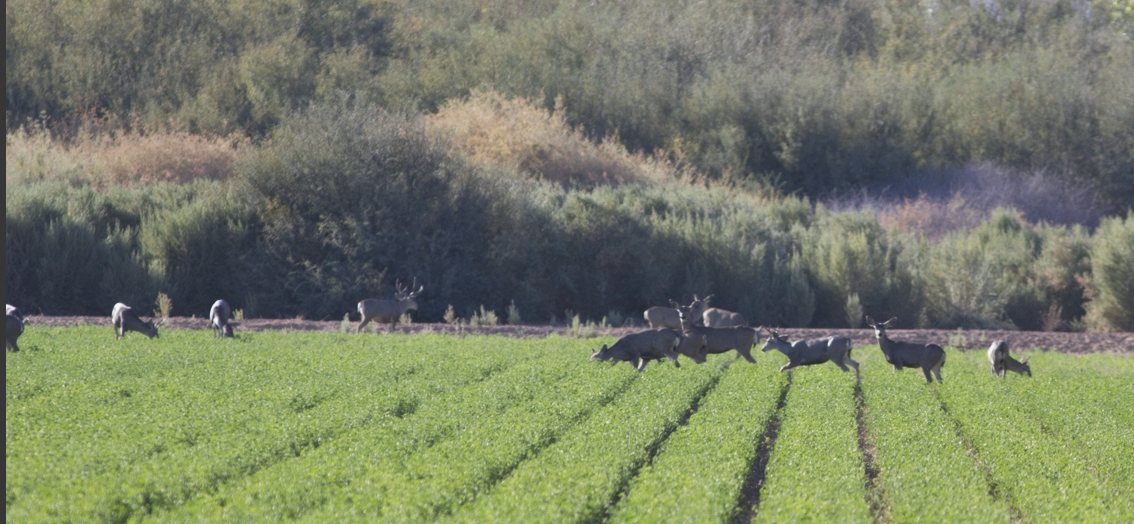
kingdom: Animalia
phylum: Chordata
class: Mammalia
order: Artiodactyla
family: Cervidae
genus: Odocoileus
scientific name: Odocoileus hemionus
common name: Mule deer
